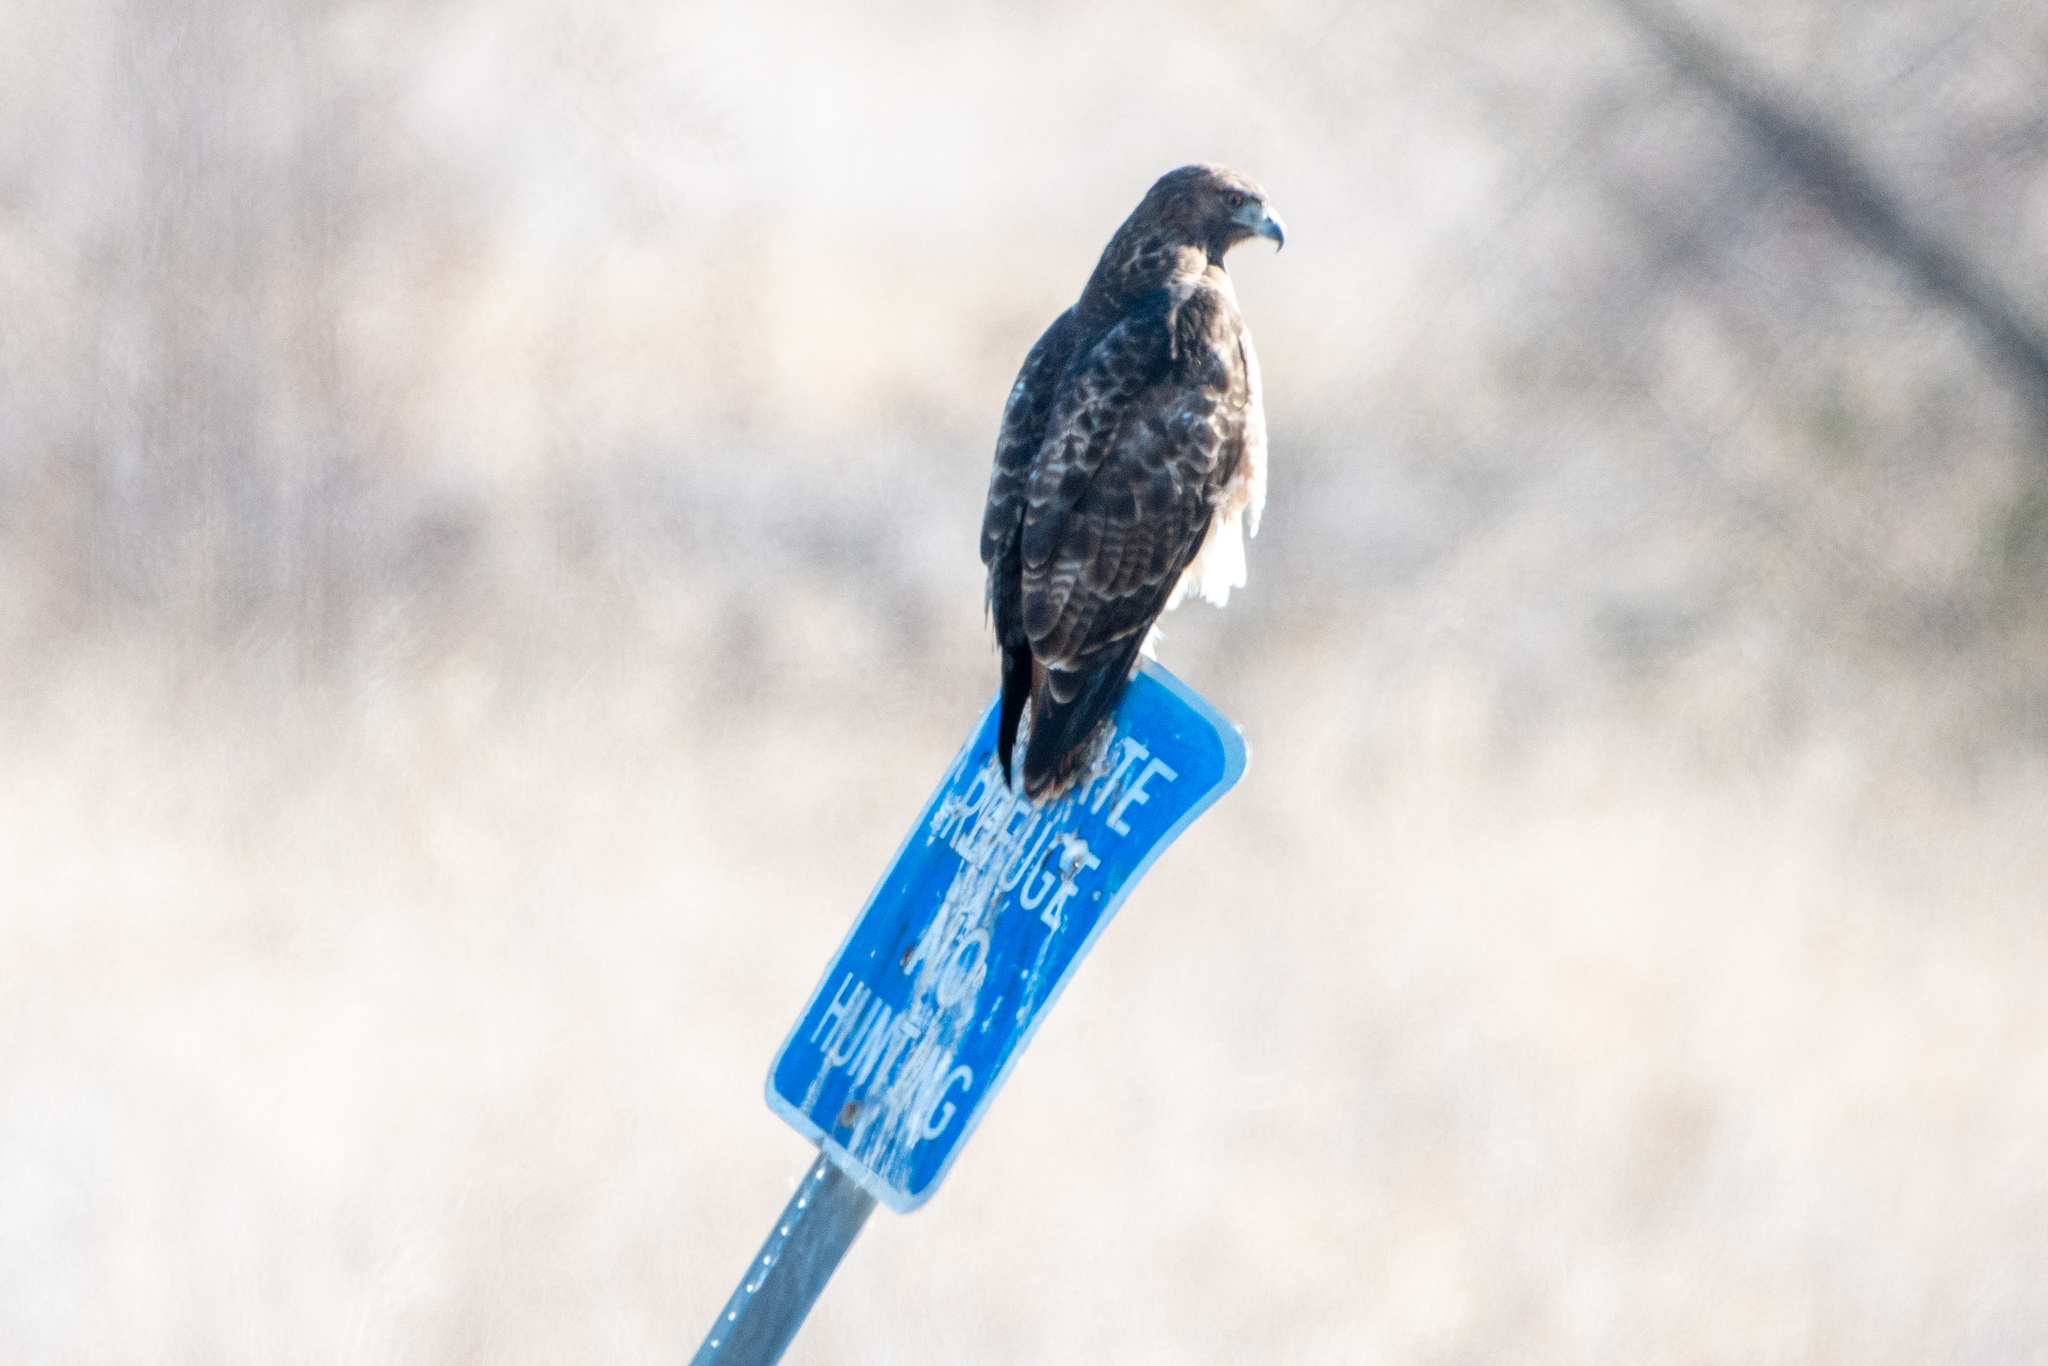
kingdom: Animalia
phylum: Chordata
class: Aves
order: Accipitriformes
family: Accipitridae
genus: Buteo
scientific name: Buteo jamaicensis
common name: Red-tailed hawk
